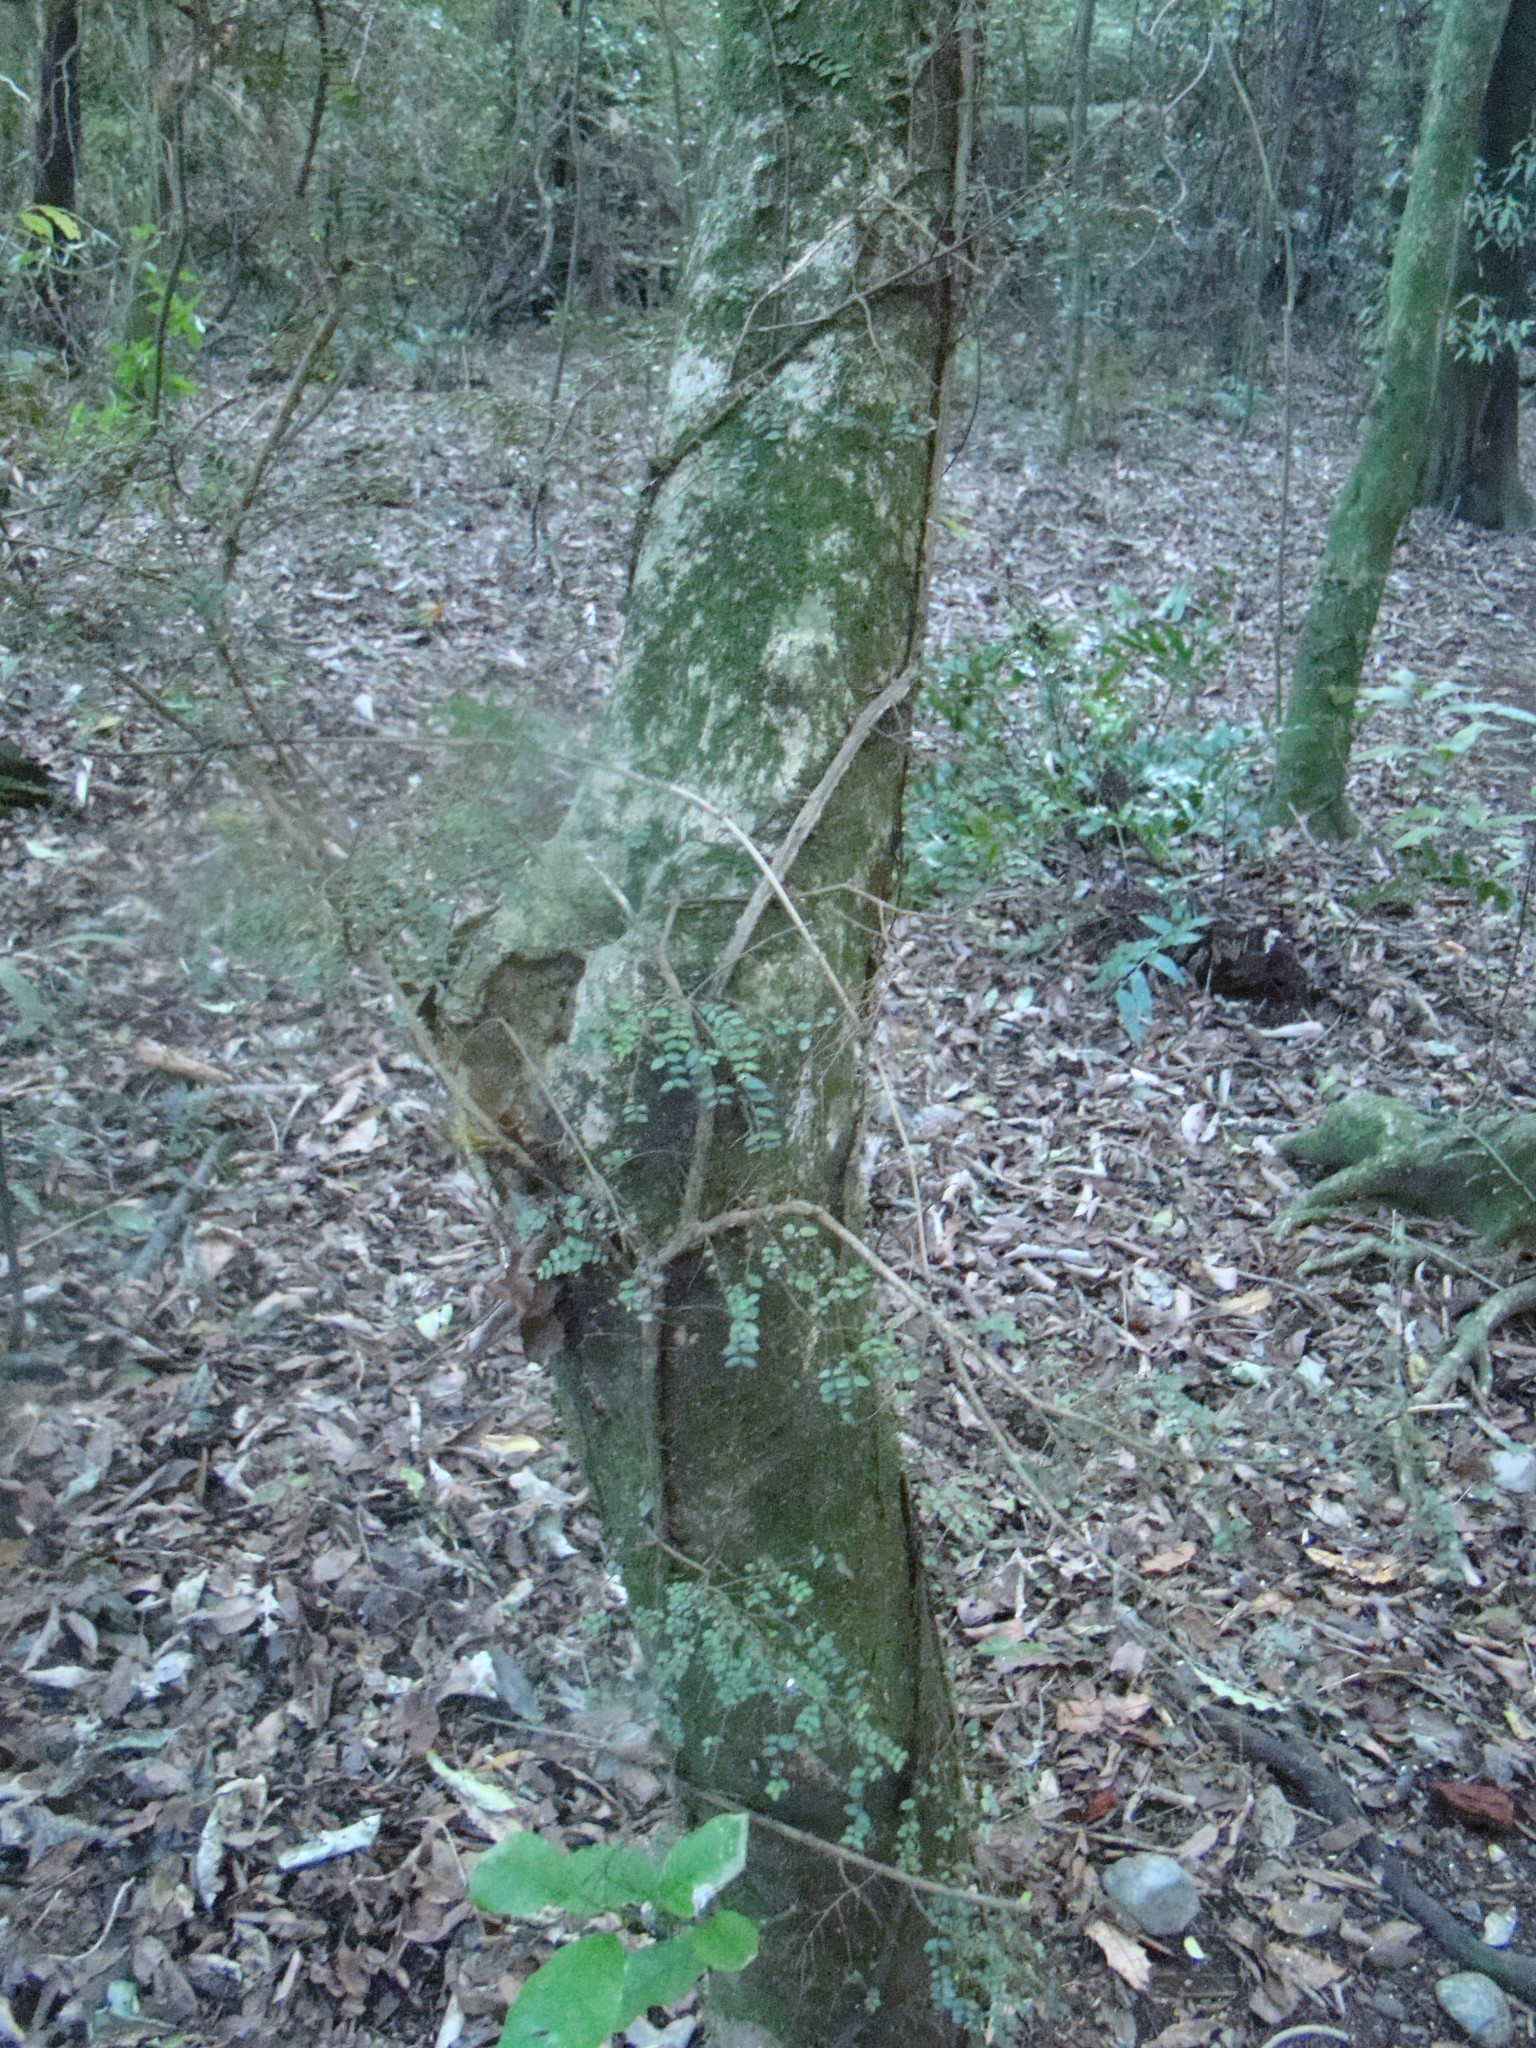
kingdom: Plantae
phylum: Tracheophyta
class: Magnoliopsida
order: Myrtales
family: Myrtaceae
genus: Metrosideros
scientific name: Metrosideros diffusa
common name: Small ratavine
